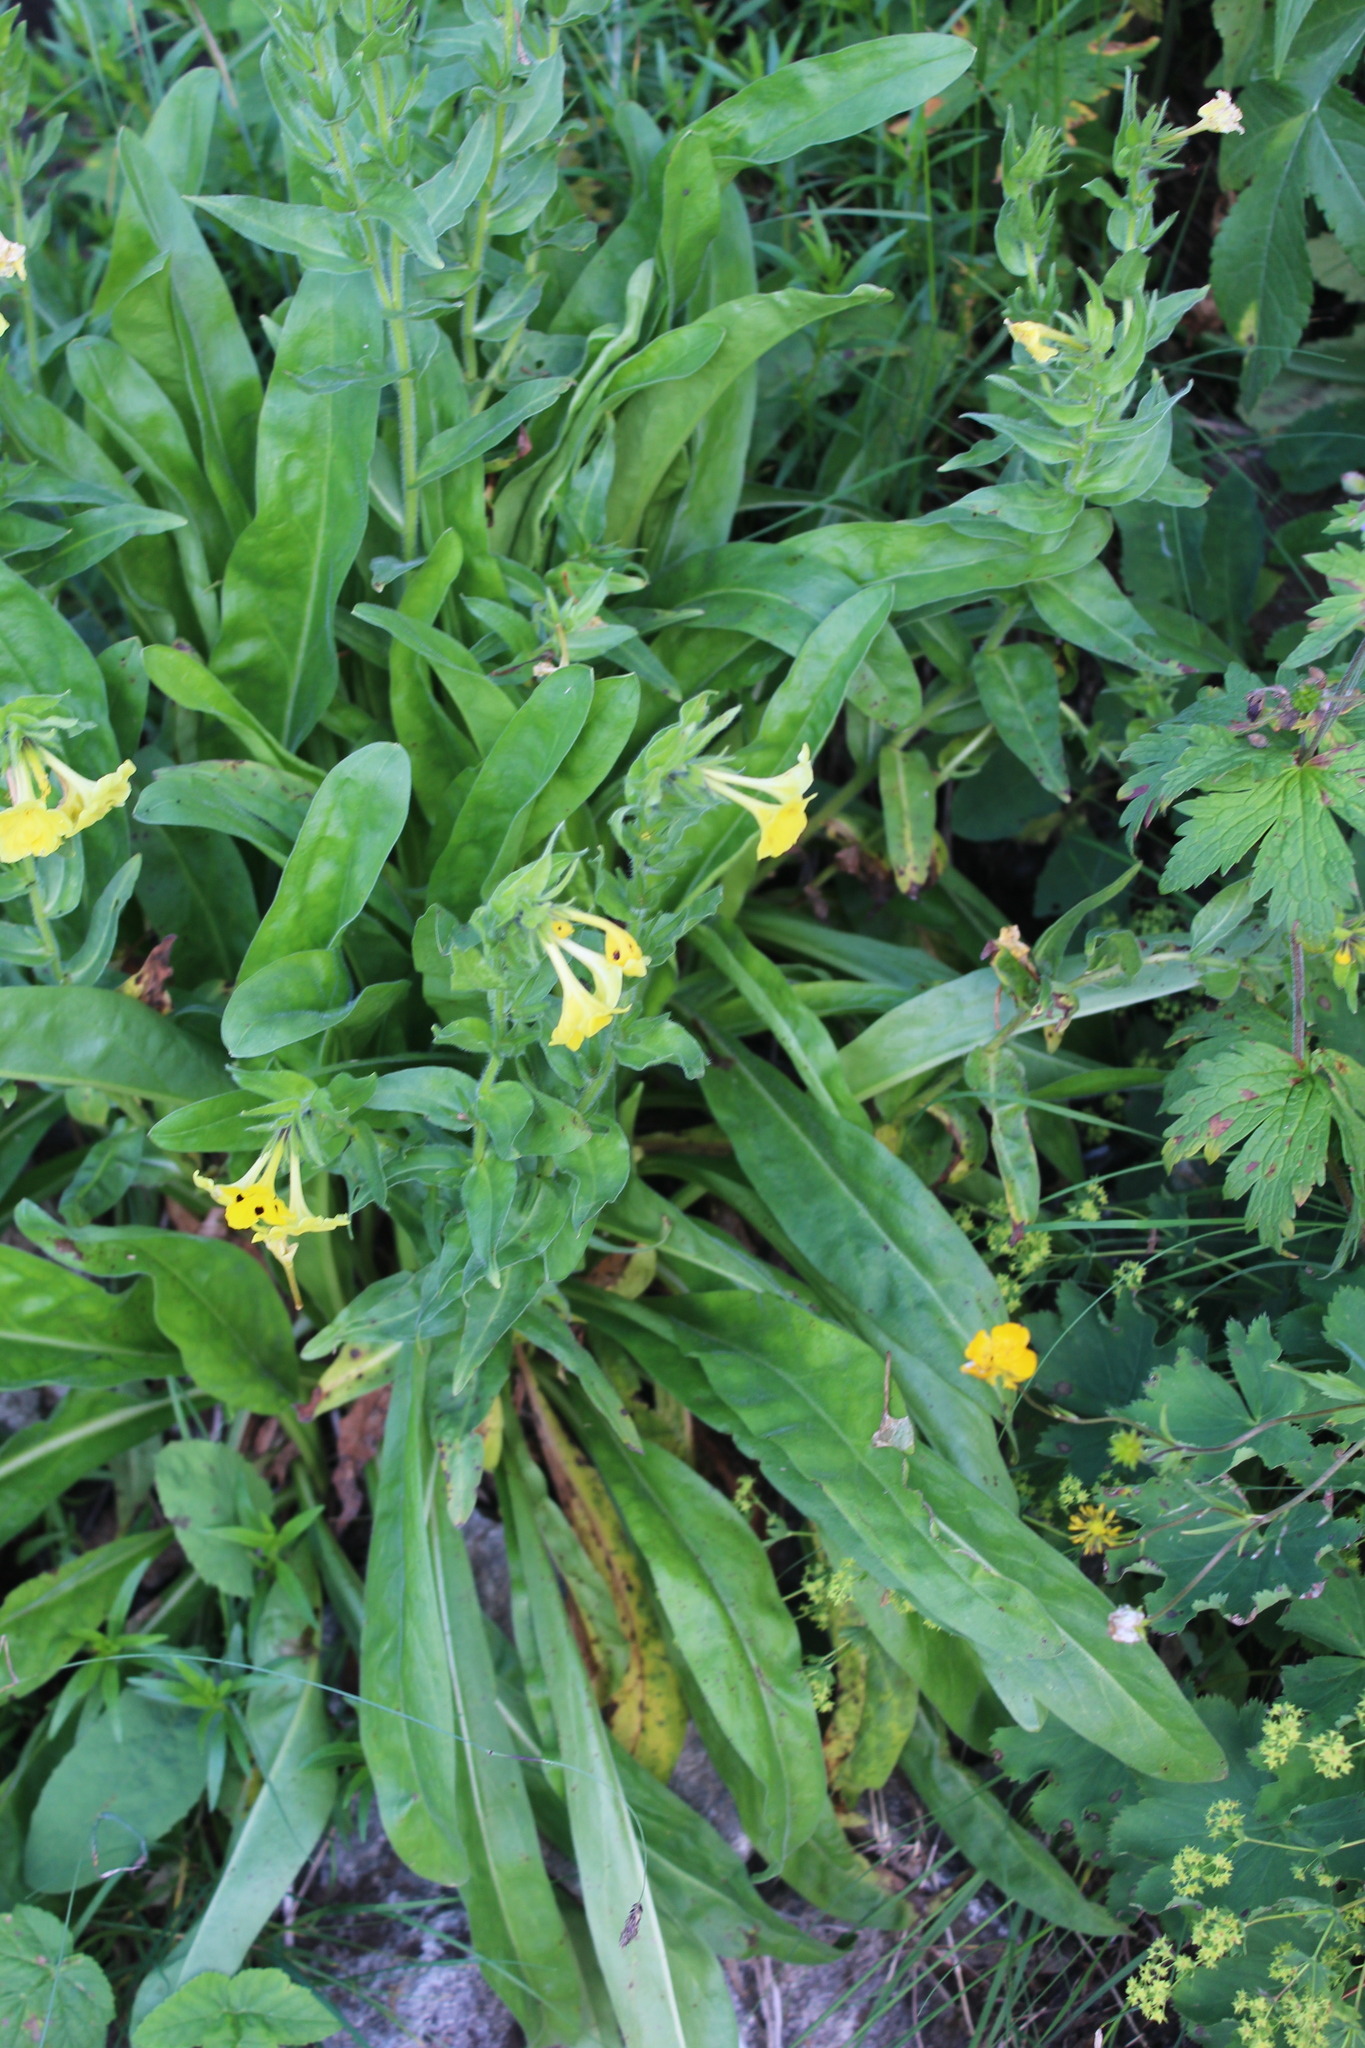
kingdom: Plantae
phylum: Tracheophyta
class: Magnoliopsida
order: Boraginales
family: Boraginaceae
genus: Huynhia
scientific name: Huynhia pulchra
